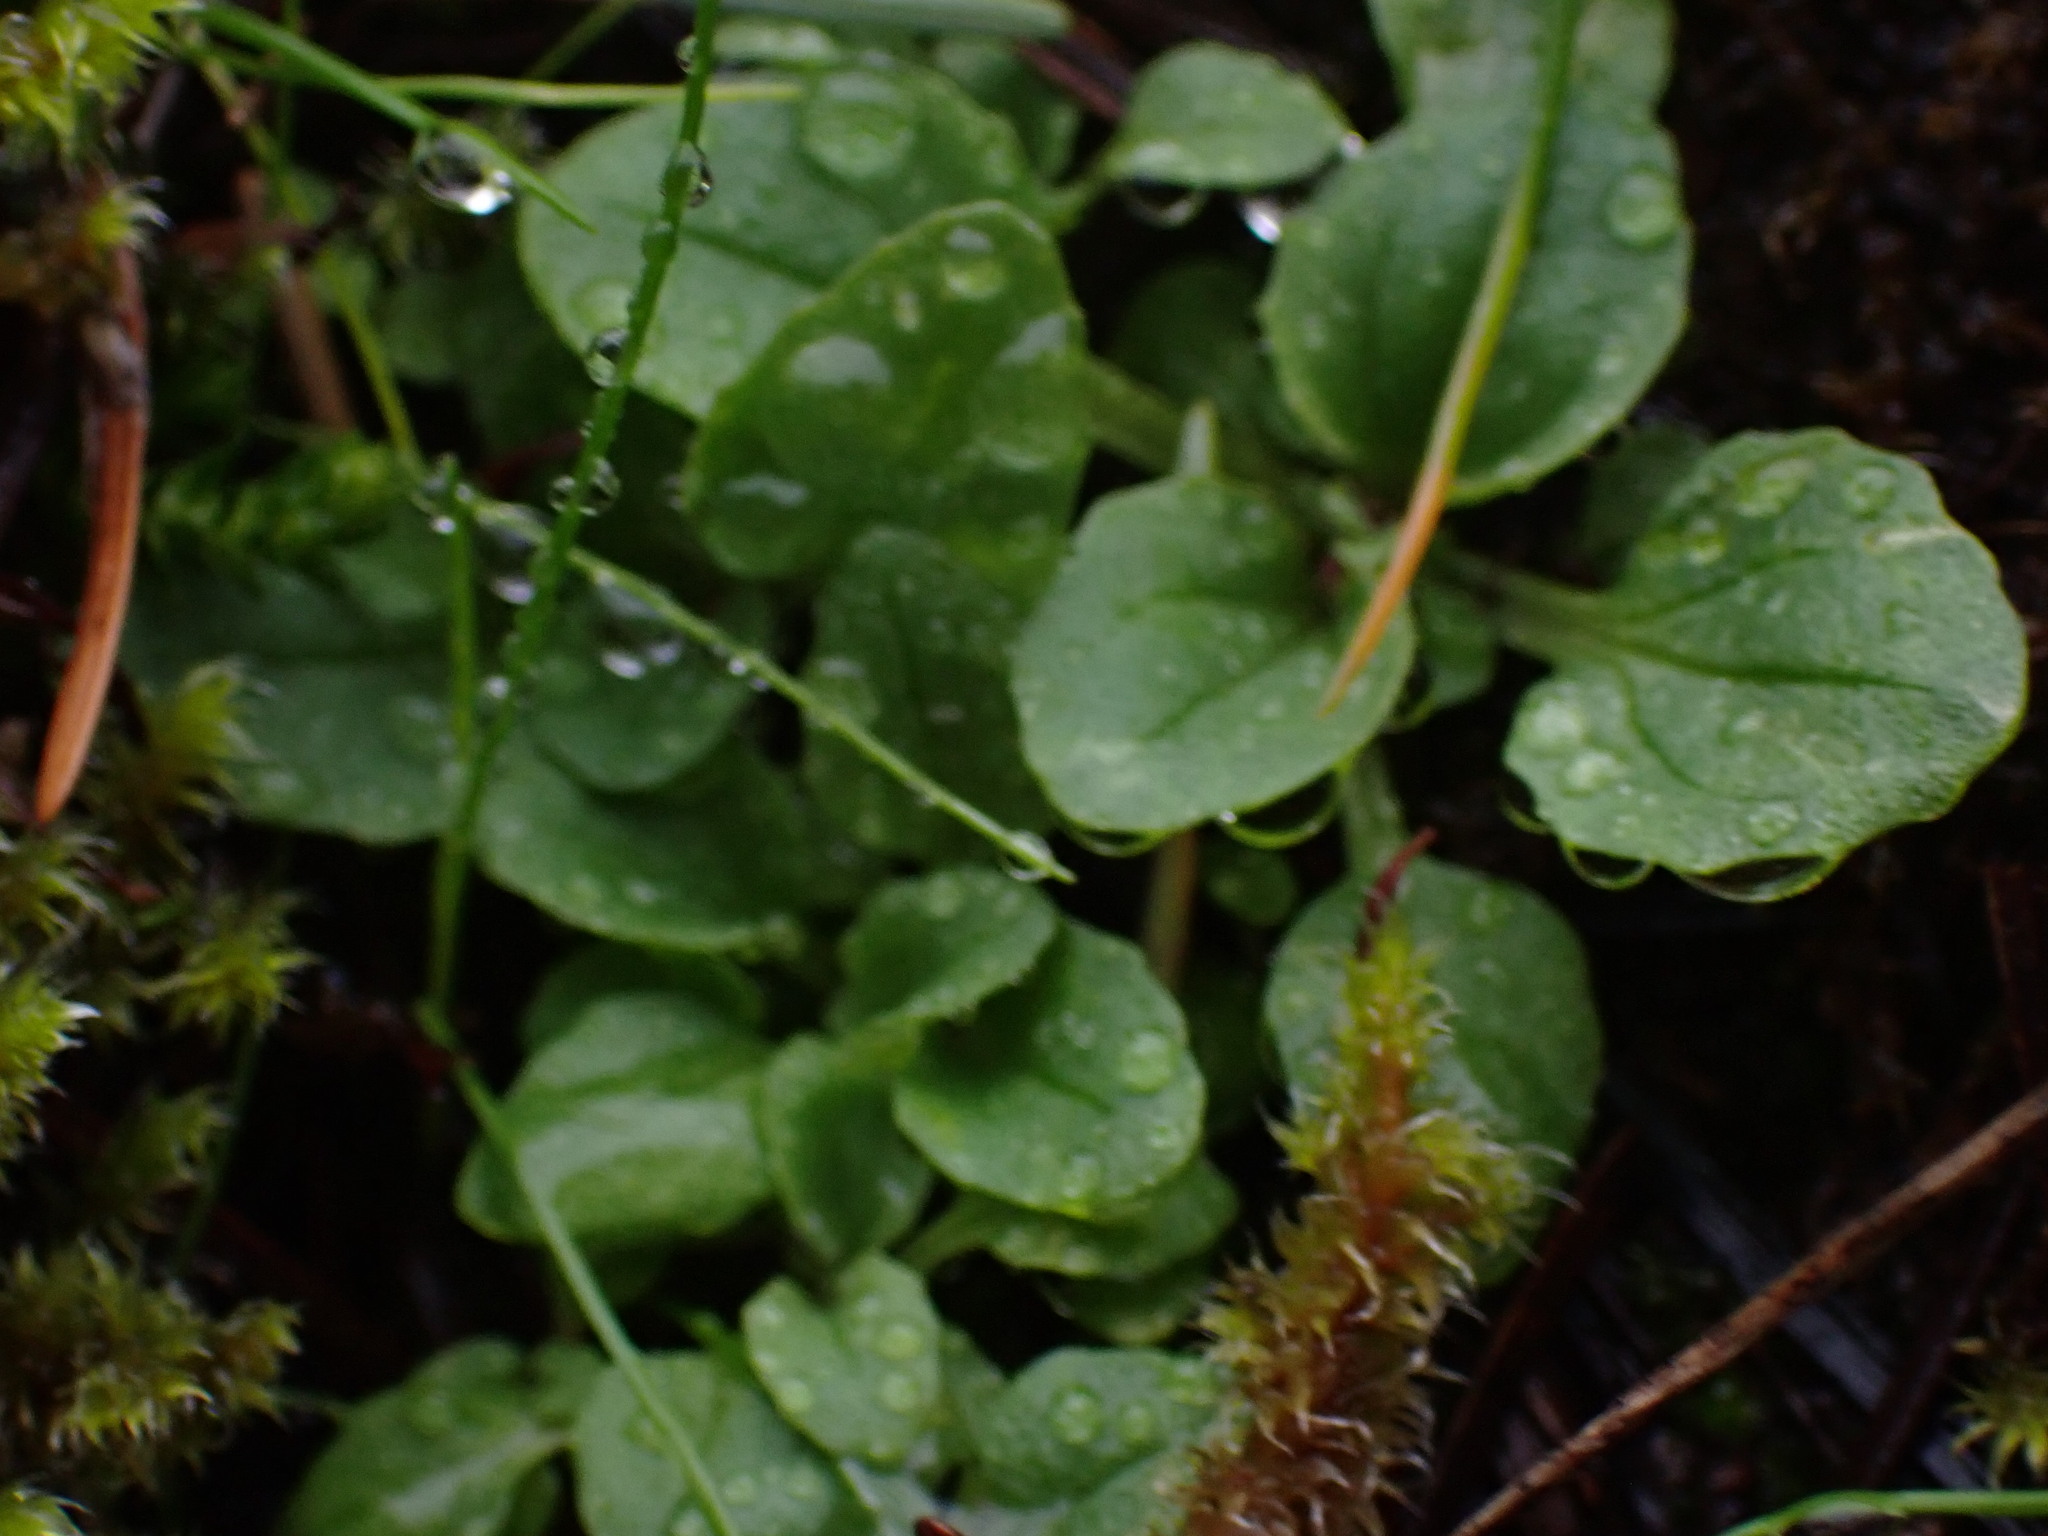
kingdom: Plantae
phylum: Tracheophyta
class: Magnoliopsida
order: Dipsacales
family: Caprifoliaceae
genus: Plectritis
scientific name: Plectritis congesta
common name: Pink plectritis
